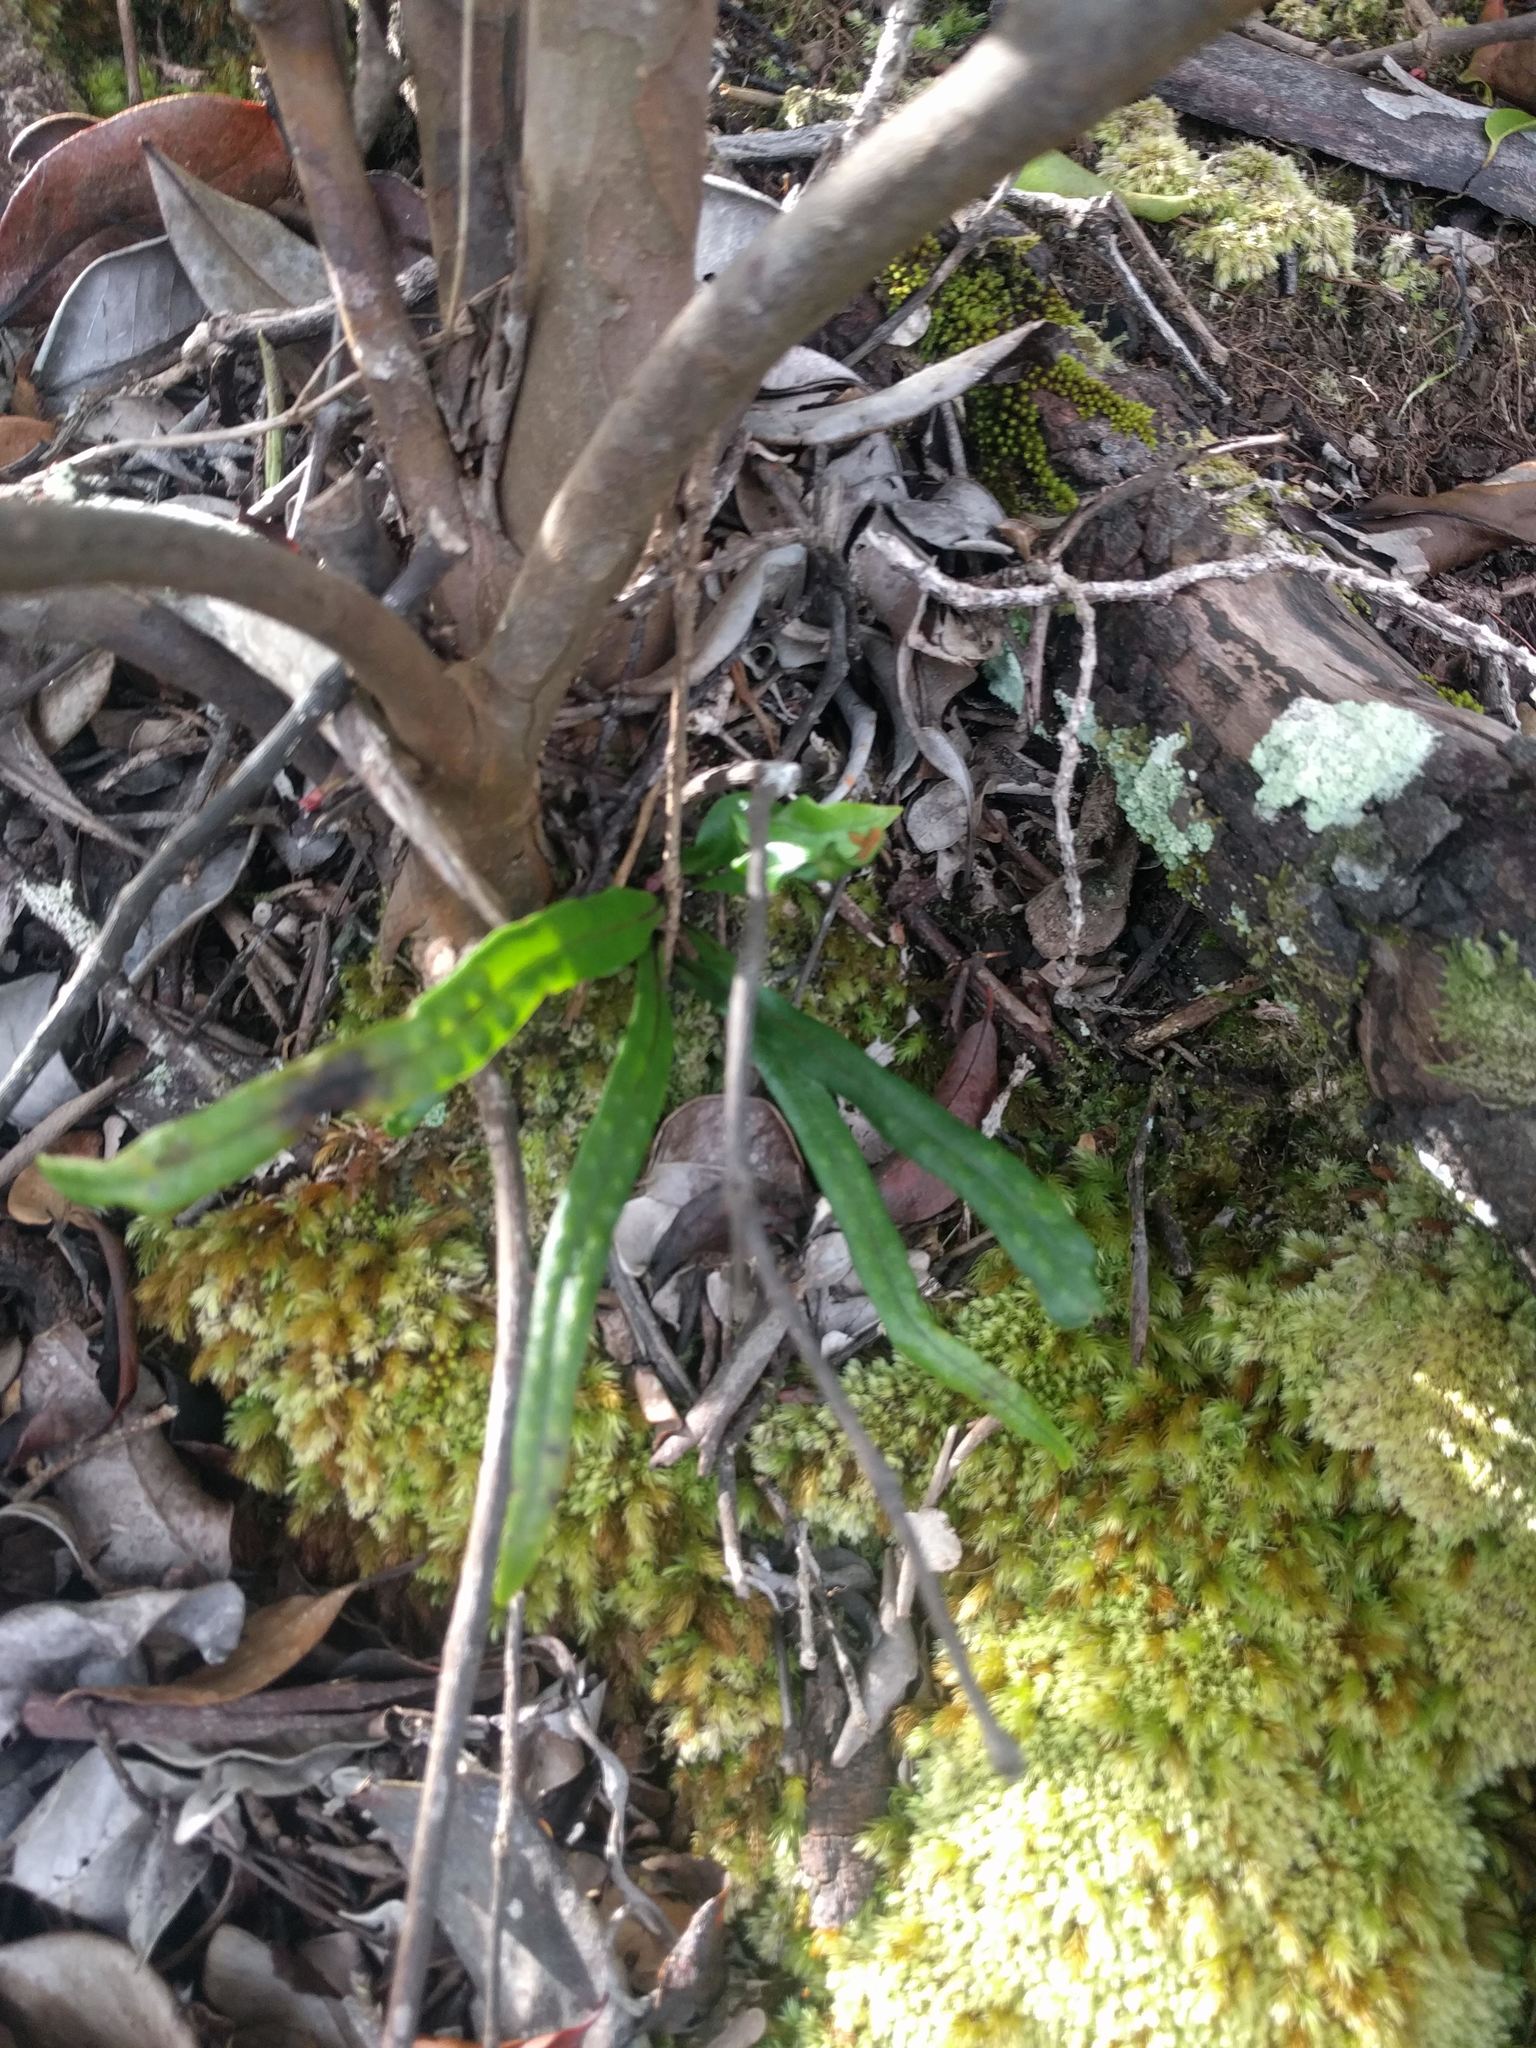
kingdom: Plantae
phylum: Tracheophyta
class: Polypodiopsida
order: Polypodiales
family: Polypodiaceae
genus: Lepisorus
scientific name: Lepisorus thunbergianus
